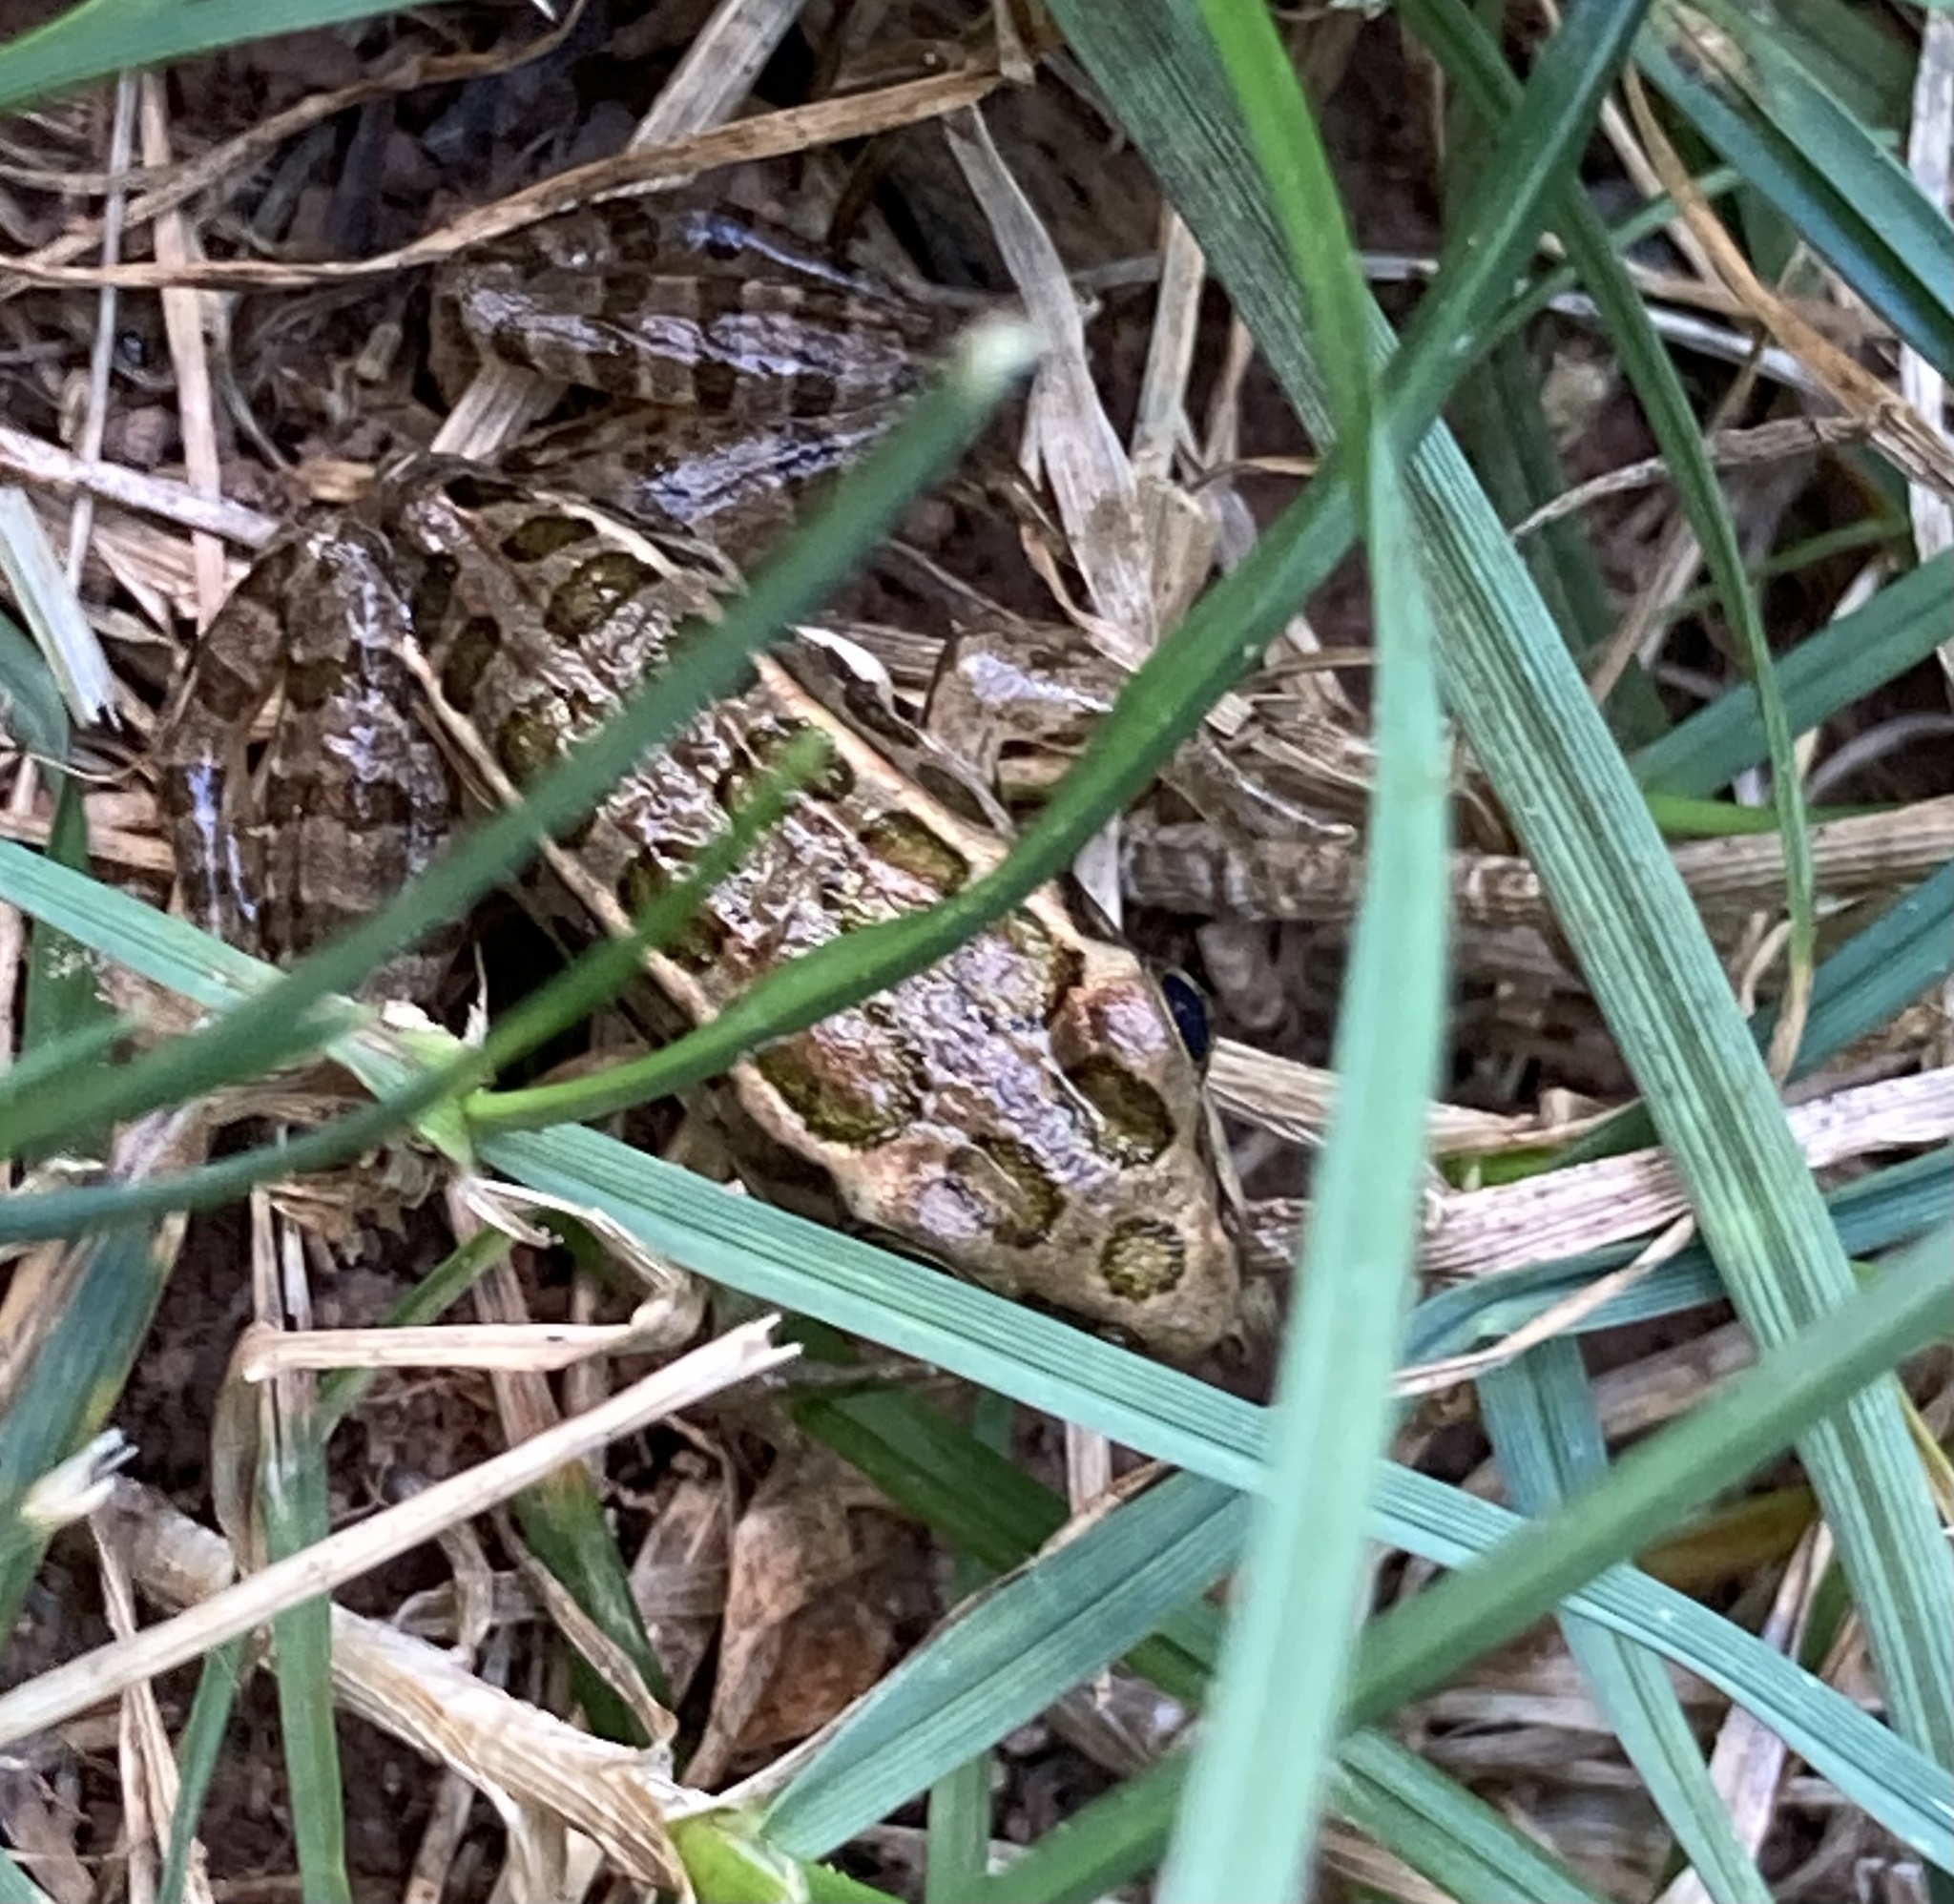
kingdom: Animalia
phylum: Chordata
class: Amphibia
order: Anura
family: Ranidae
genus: Lithobates
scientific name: Lithobates palustris
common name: Pickerel frog
